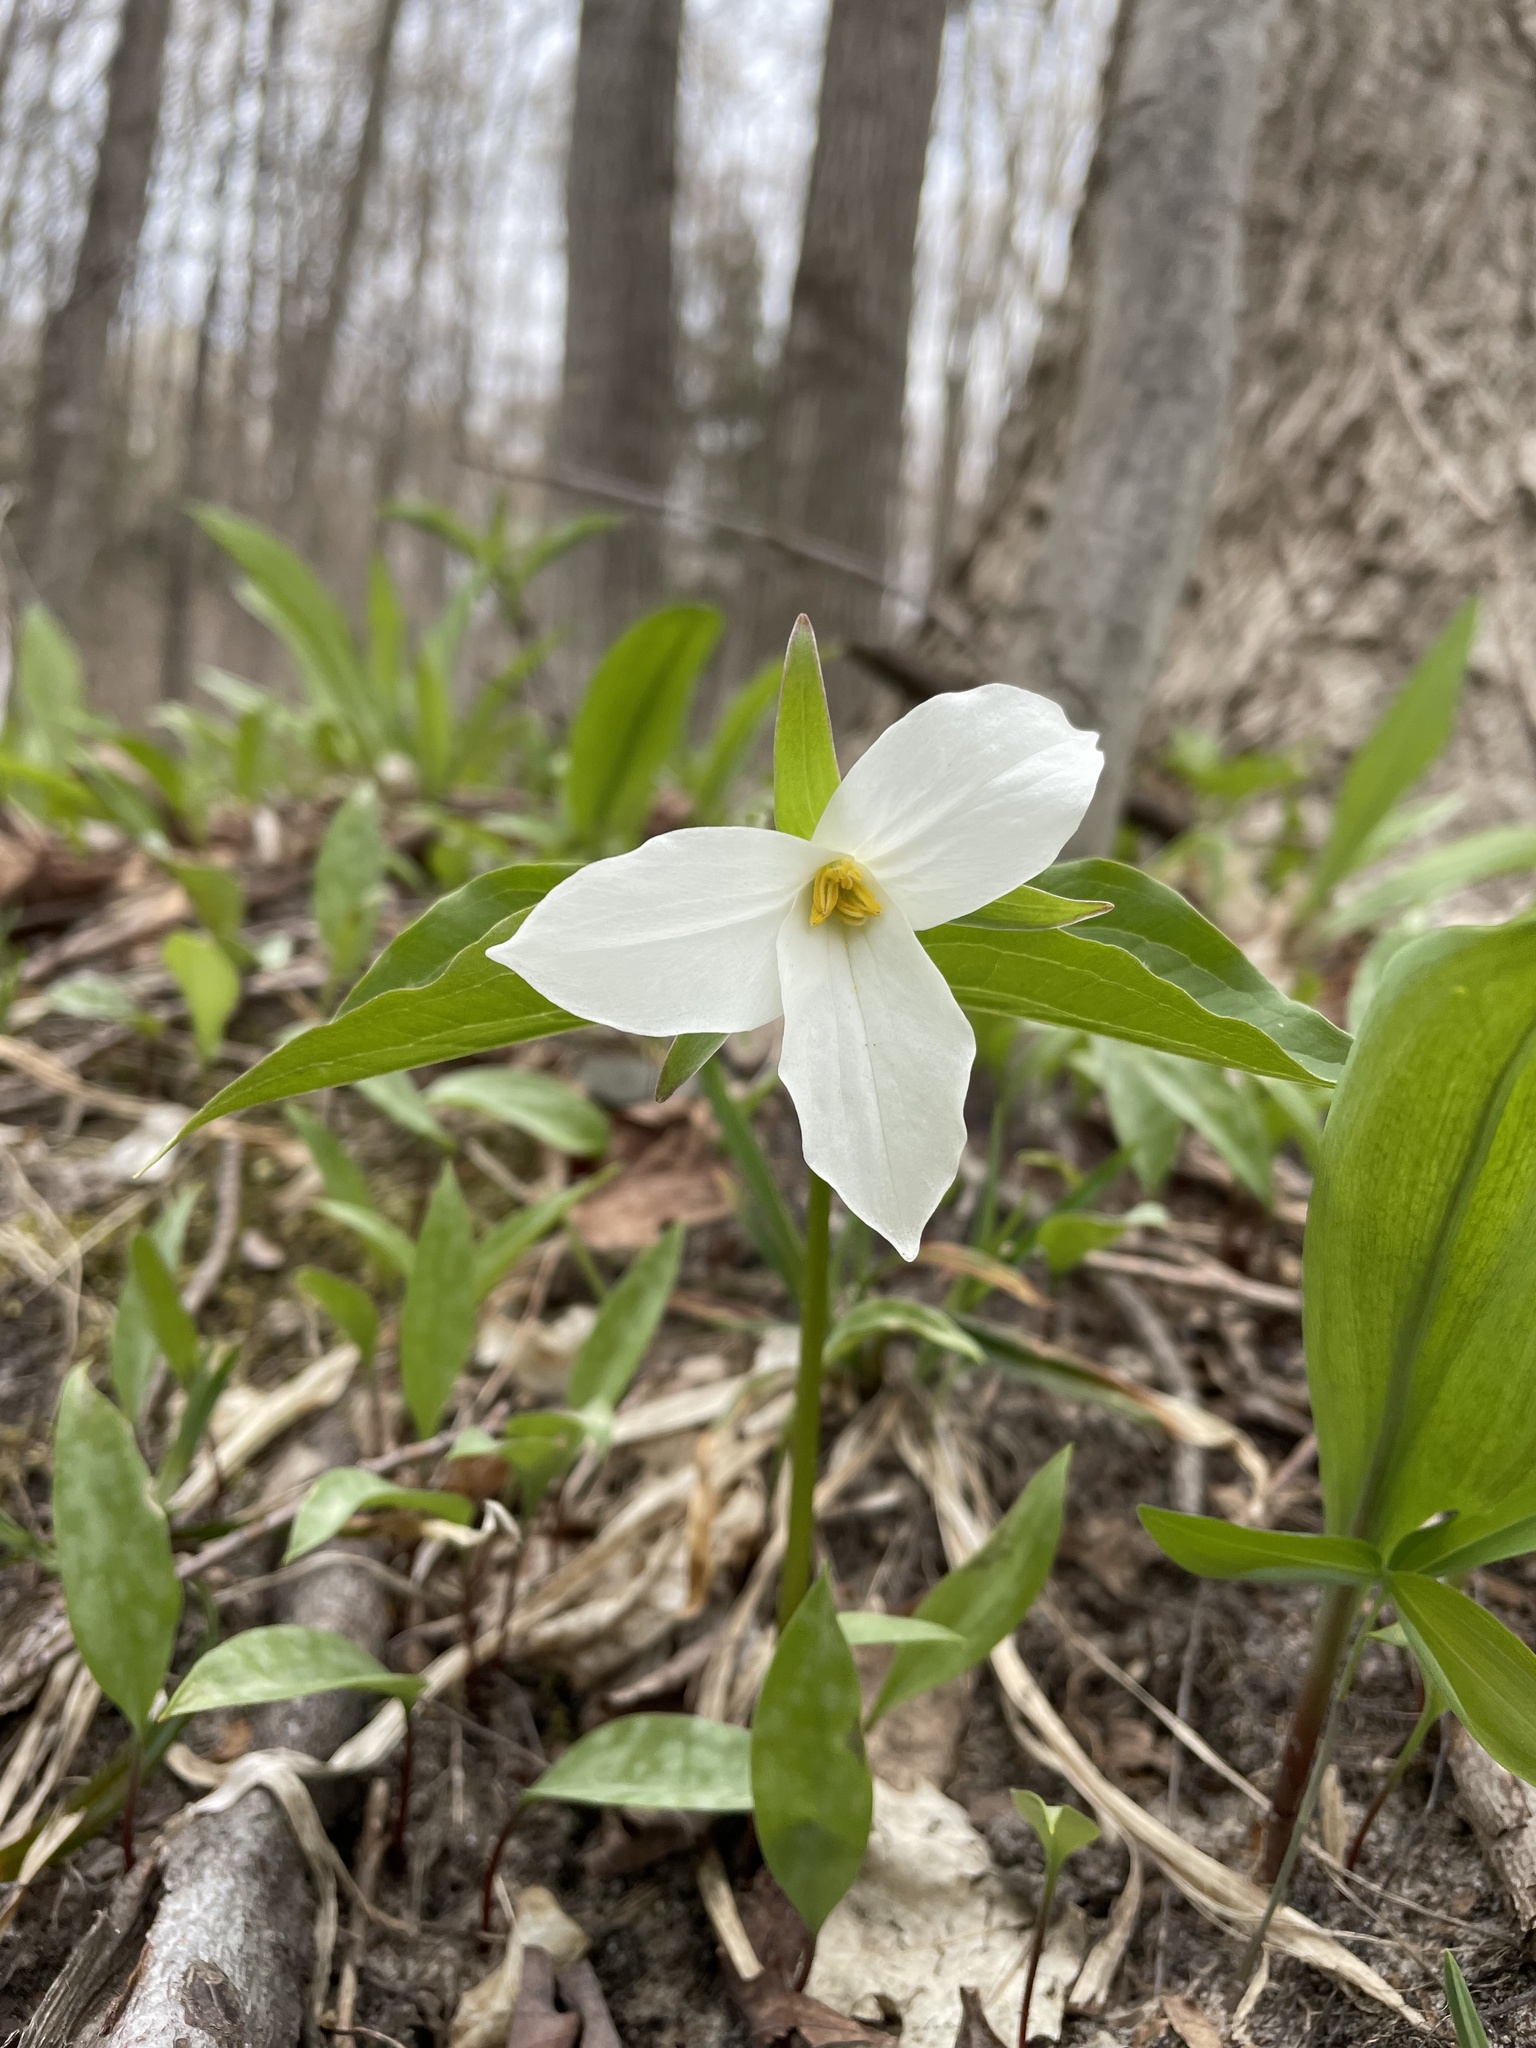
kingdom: Plantae
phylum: Tracheophyta
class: Liliopsida
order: Liliales
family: Melanthiaceae
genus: Trillium
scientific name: Trillium grandiflorum
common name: Great white trillium
